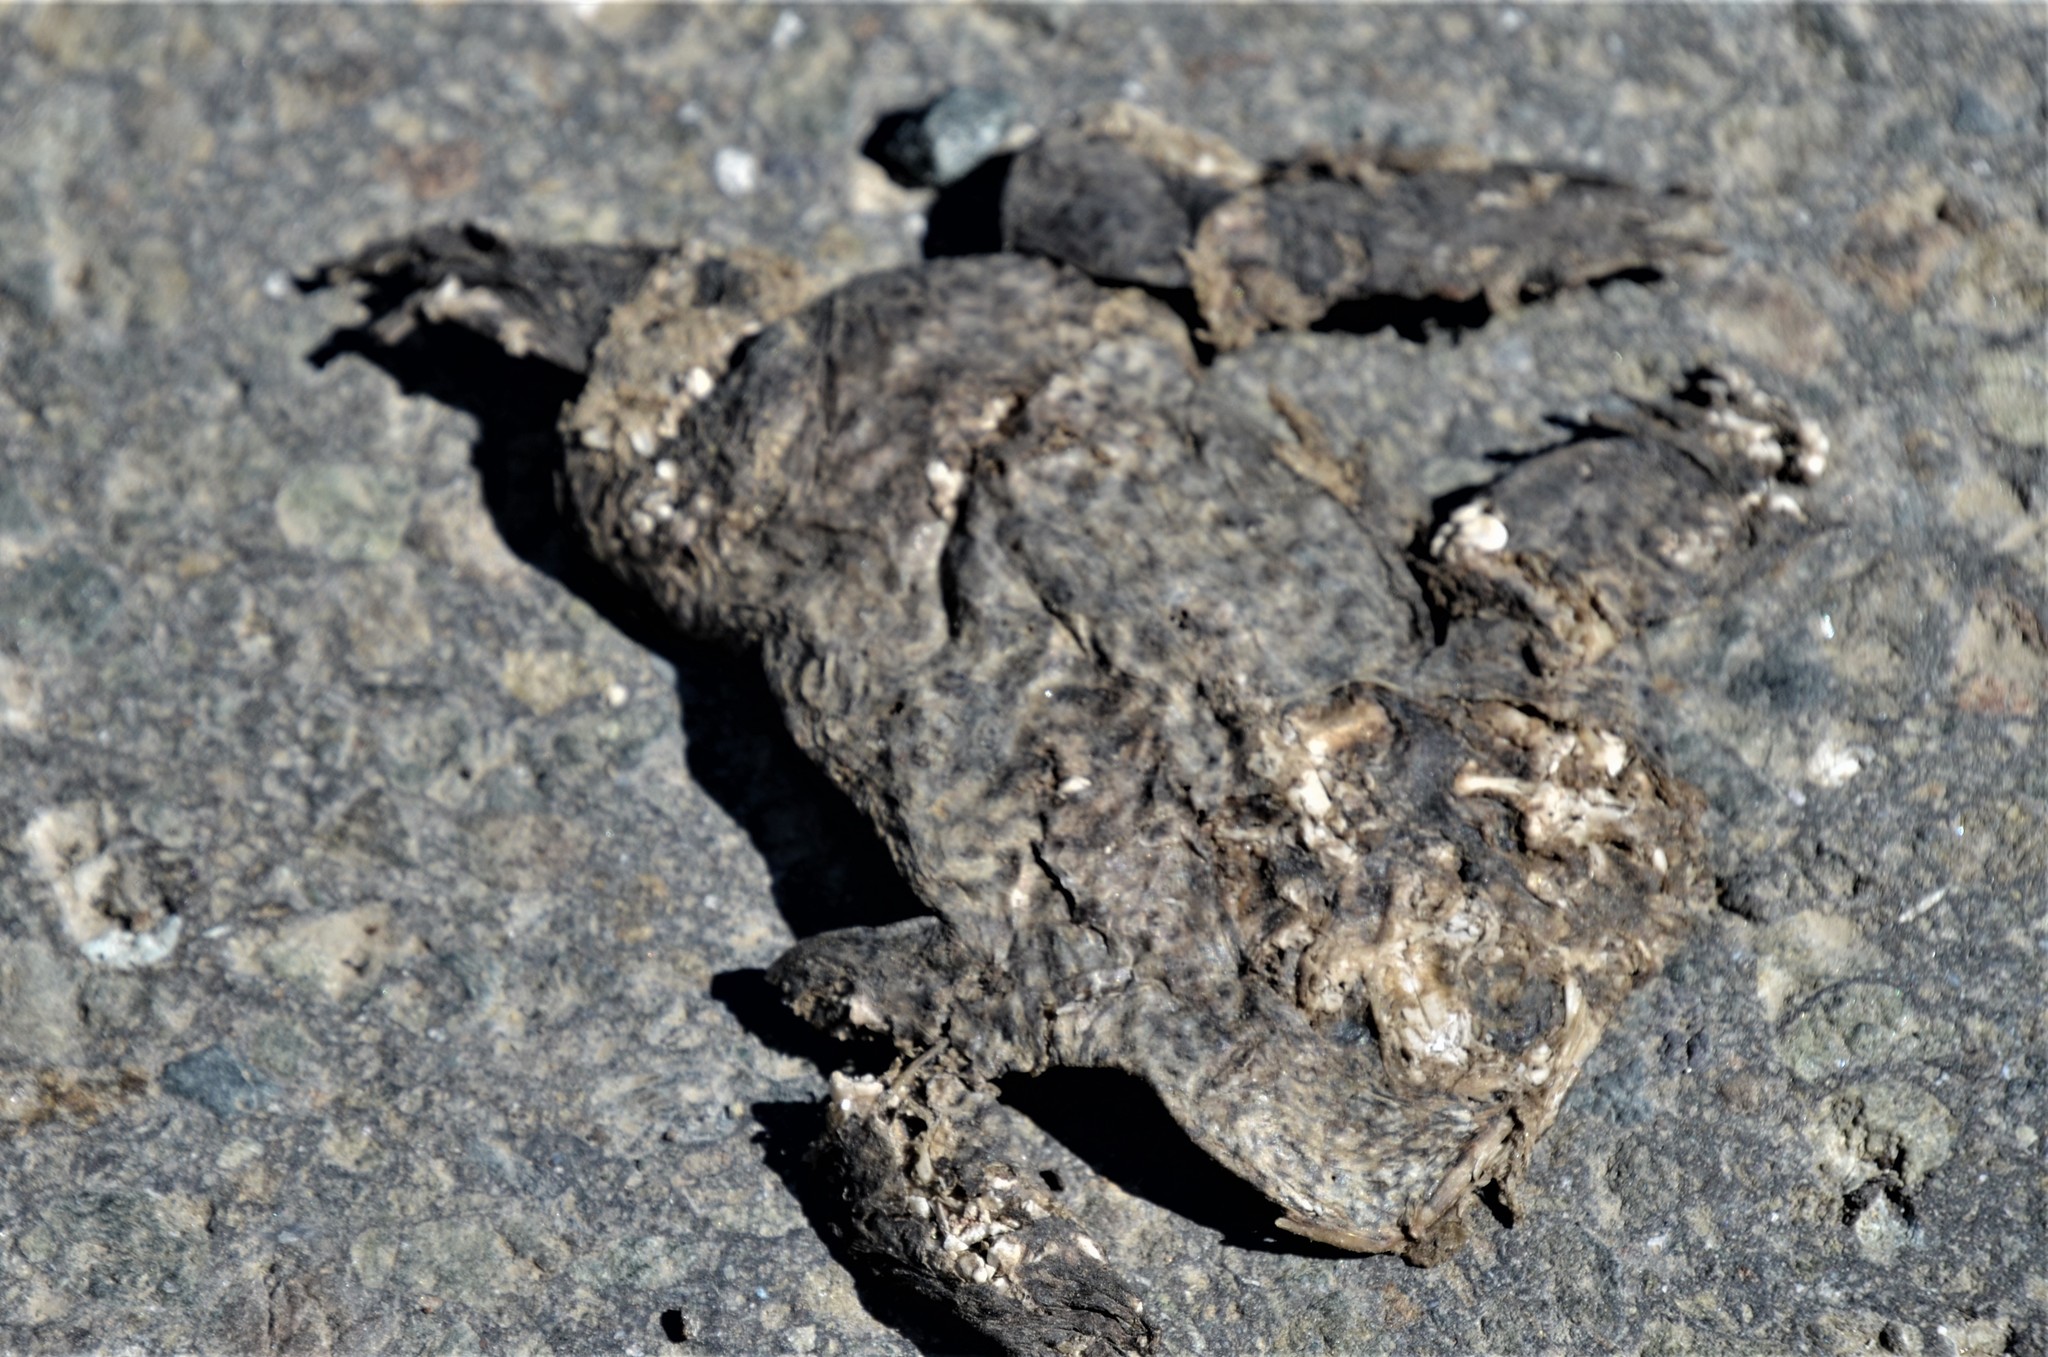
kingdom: Animalia
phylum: Chordata
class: Amphibia
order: Anura
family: Bufonidae
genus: Bufo
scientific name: Bufo bufo
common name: Common toad
